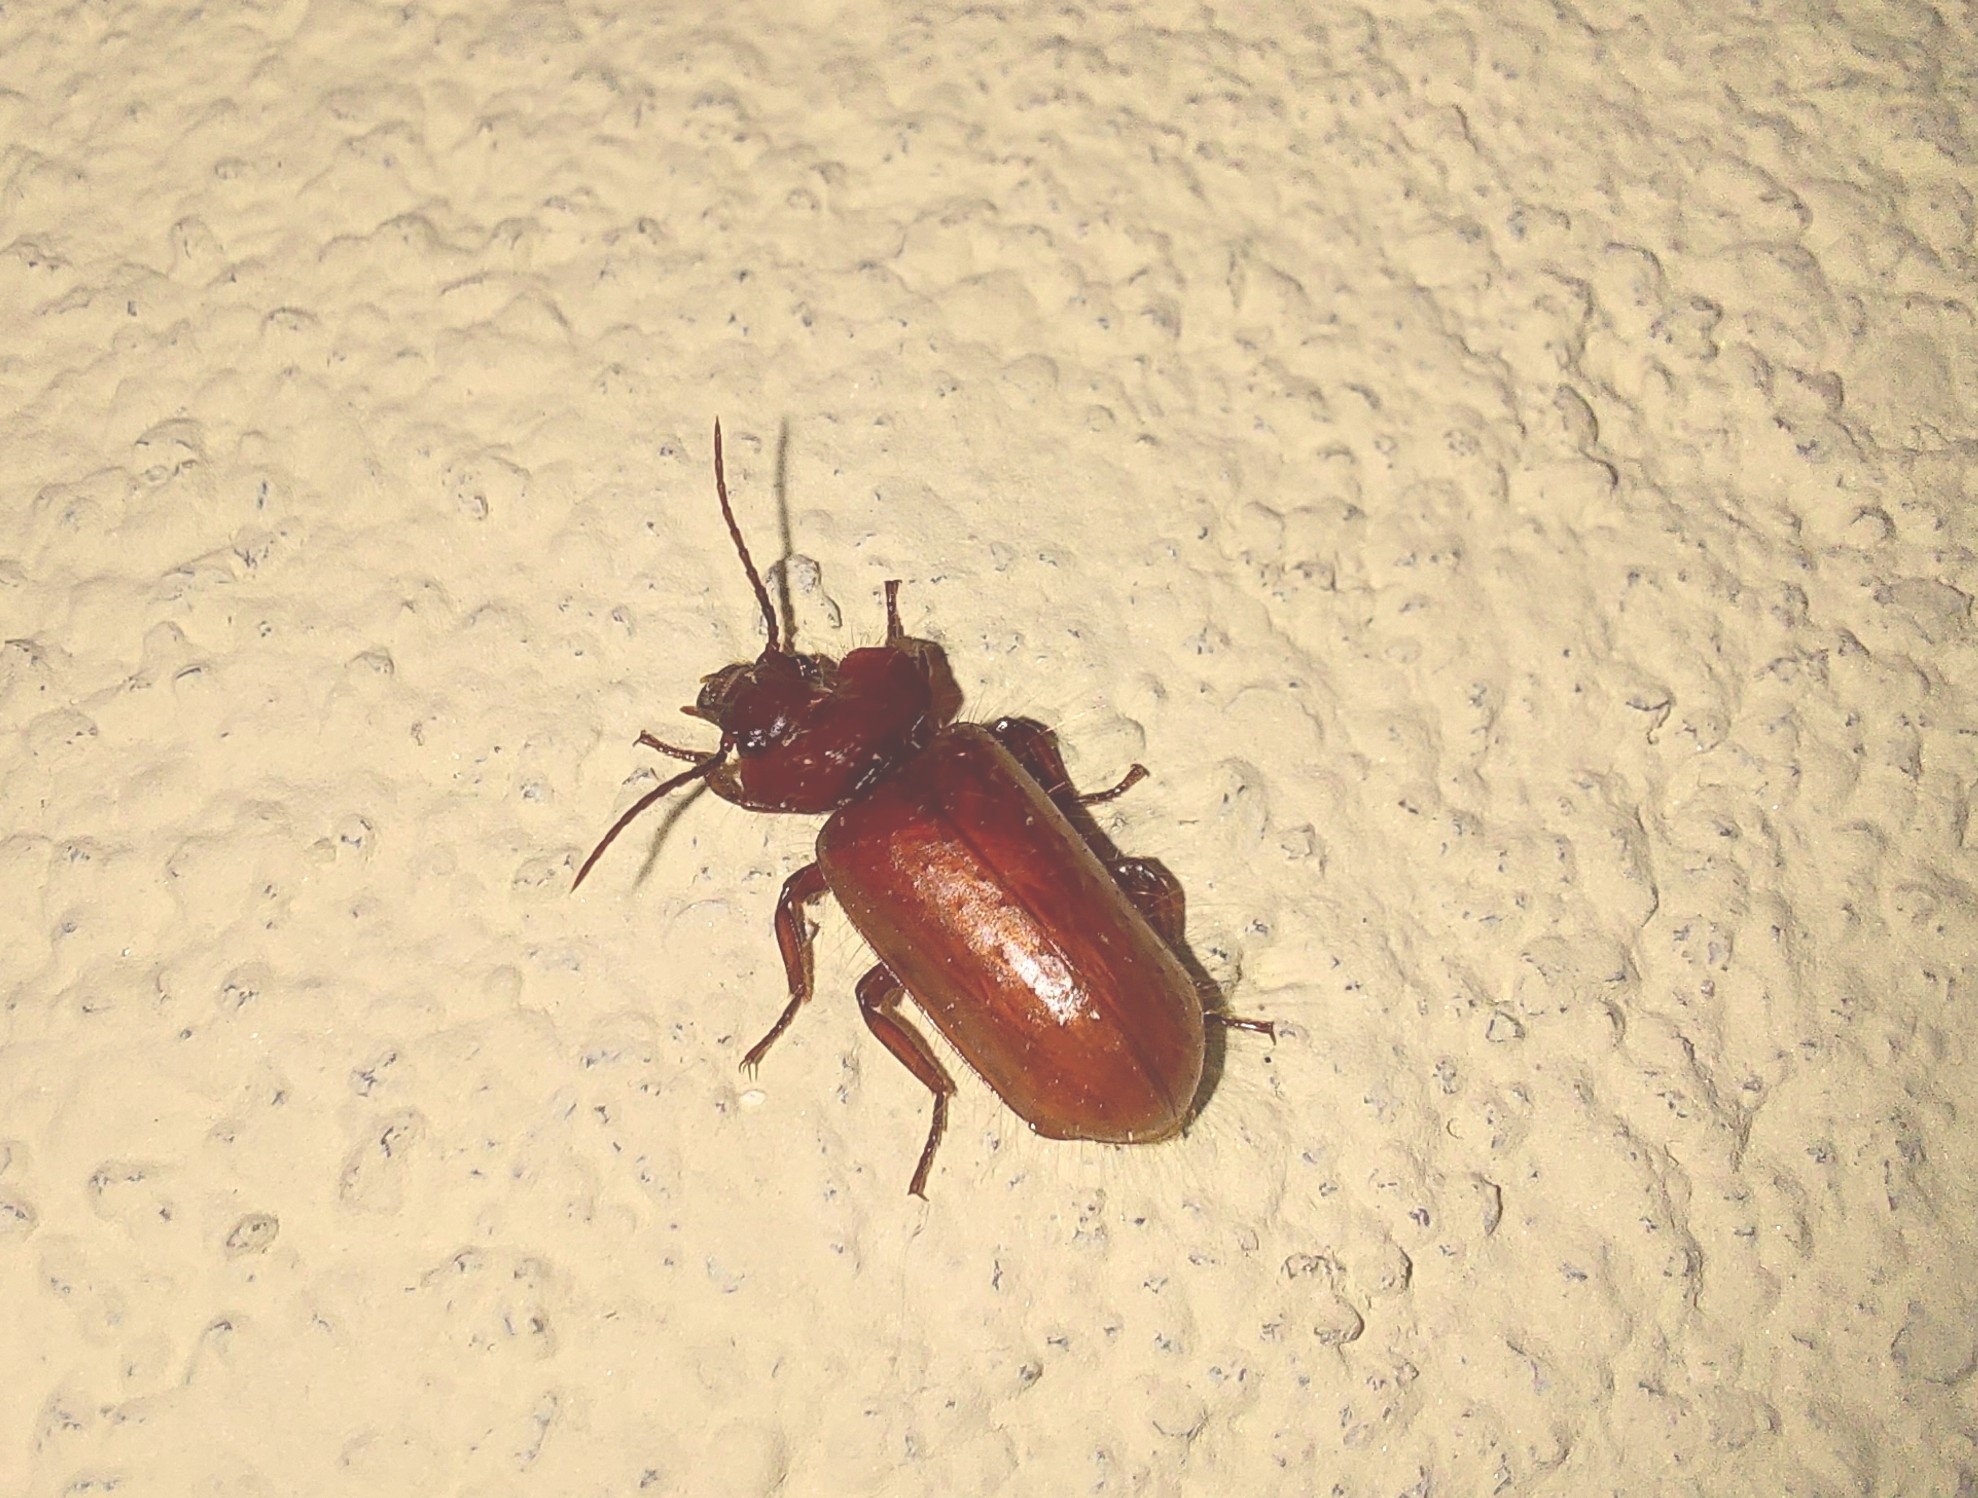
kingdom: Animalia
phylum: Arthropoda
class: Insecta
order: Coleoptera
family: Carabidae
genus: Physea
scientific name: Physea setosa
